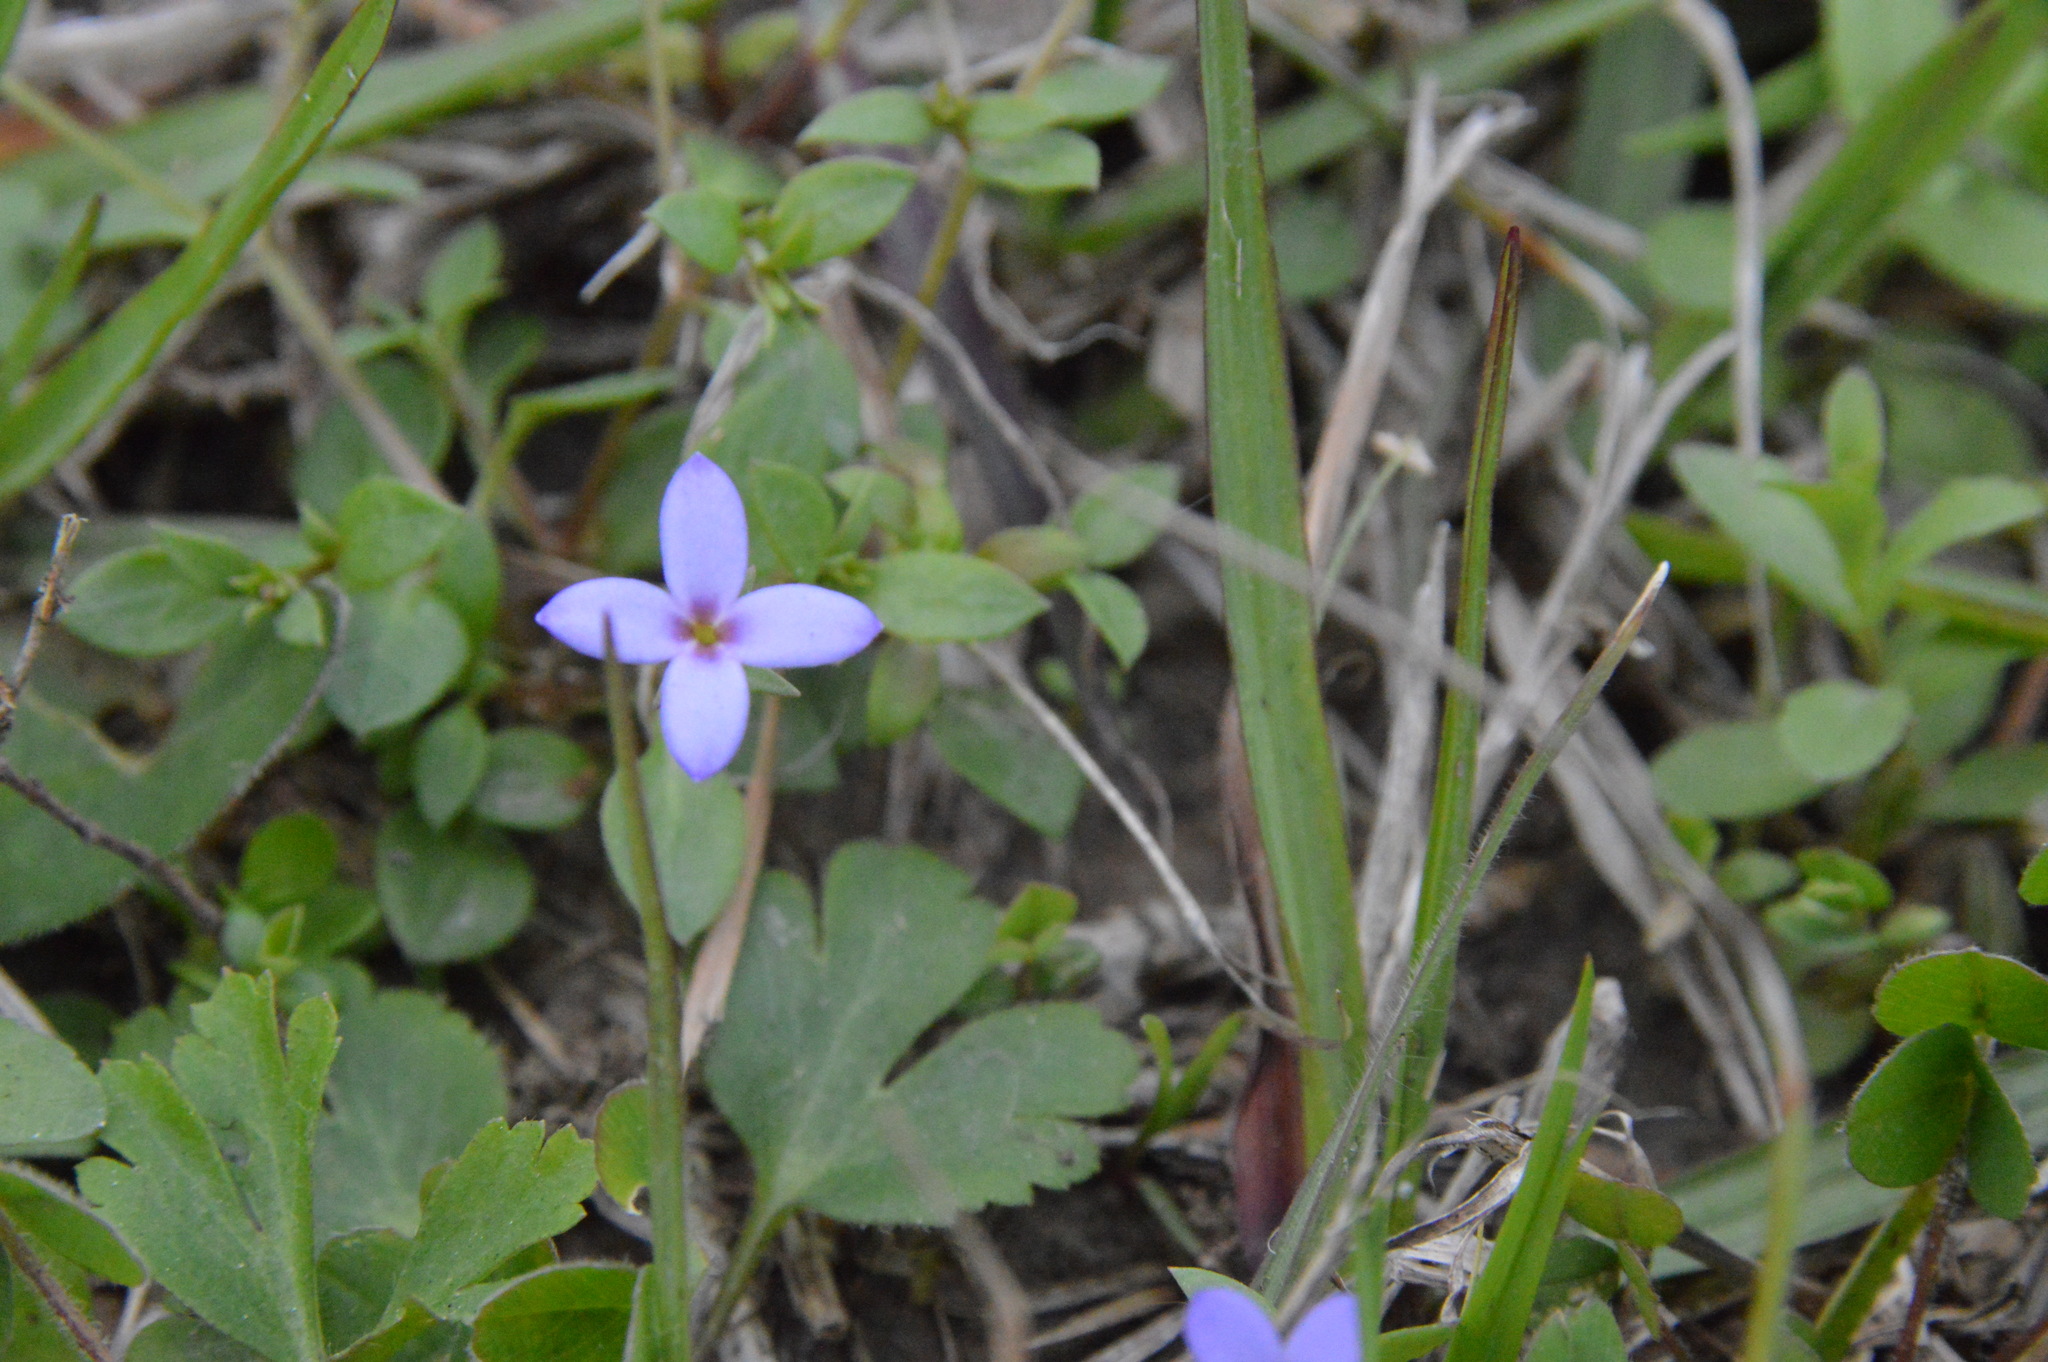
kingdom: Plantae
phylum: Tracheophyta
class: Magnoliopsida
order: Gentianales
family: Rubiaceae
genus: Houstonia
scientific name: Houstonia pusilla
